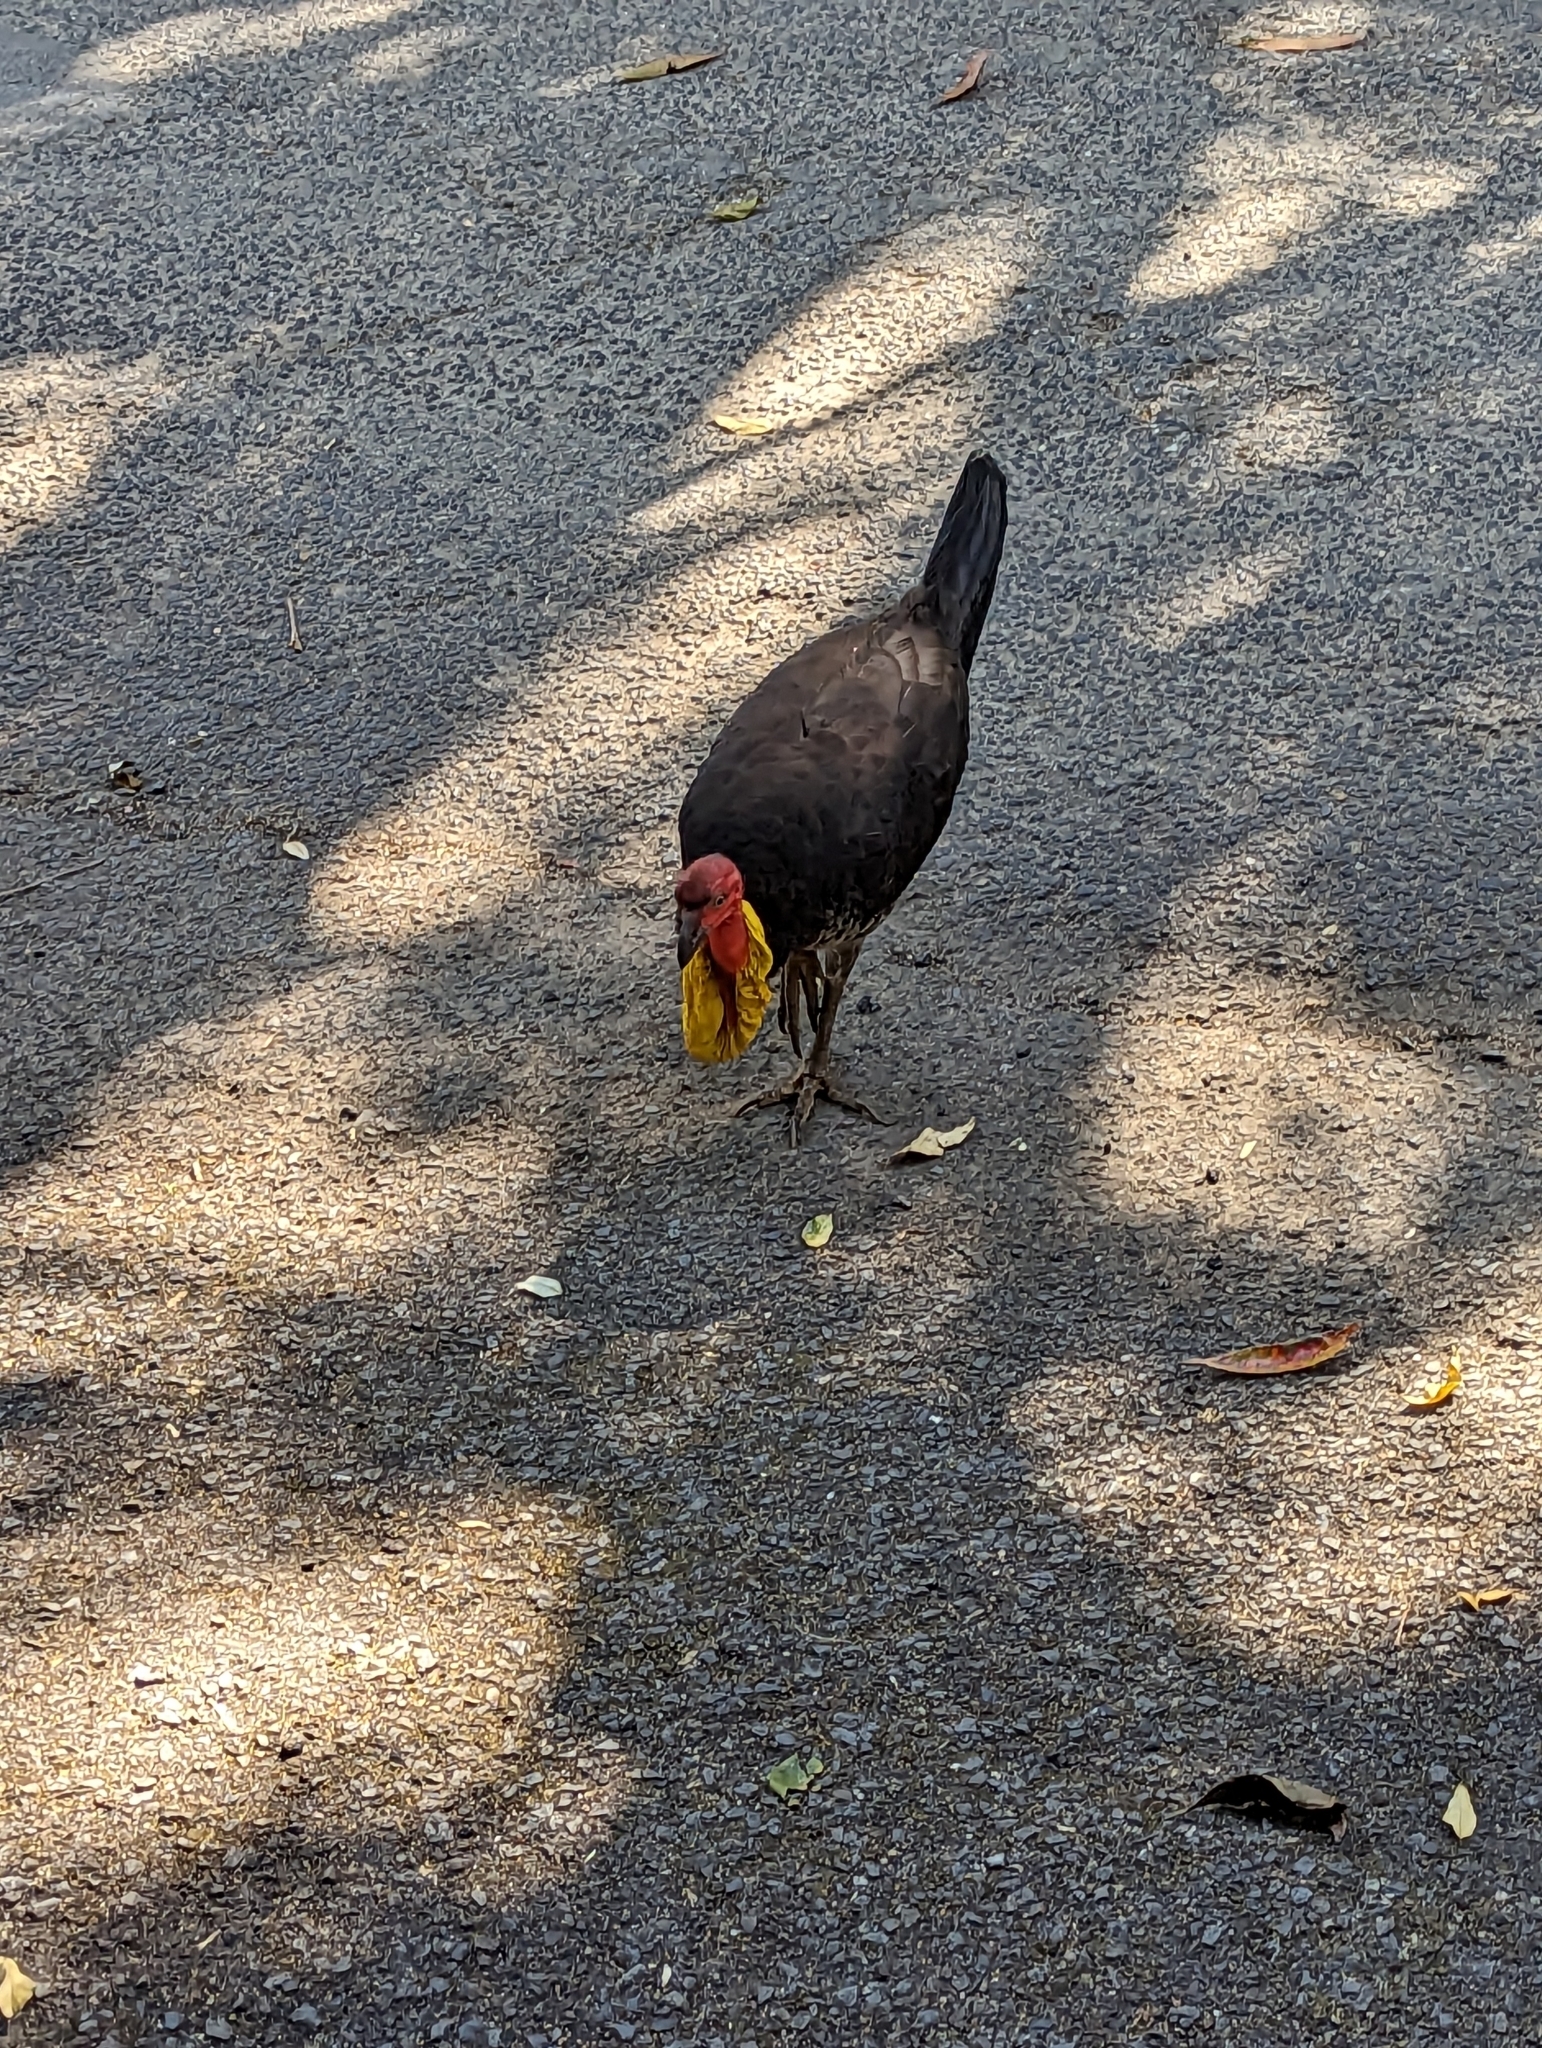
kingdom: Animalia
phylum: Chordata
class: Aves
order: Galliformes
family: Megapodiidae
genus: Alectura
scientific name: Alectura lathami
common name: Australian brushturkey
